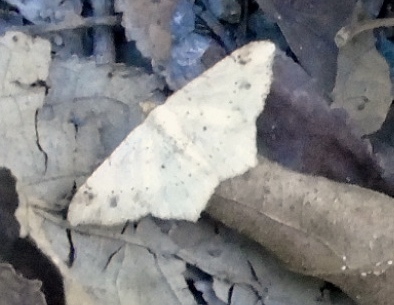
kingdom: Animalia
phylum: Arthropoda
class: Insecta
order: Lepidoptera
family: Geometridae
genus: Macaria
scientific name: Macaria
